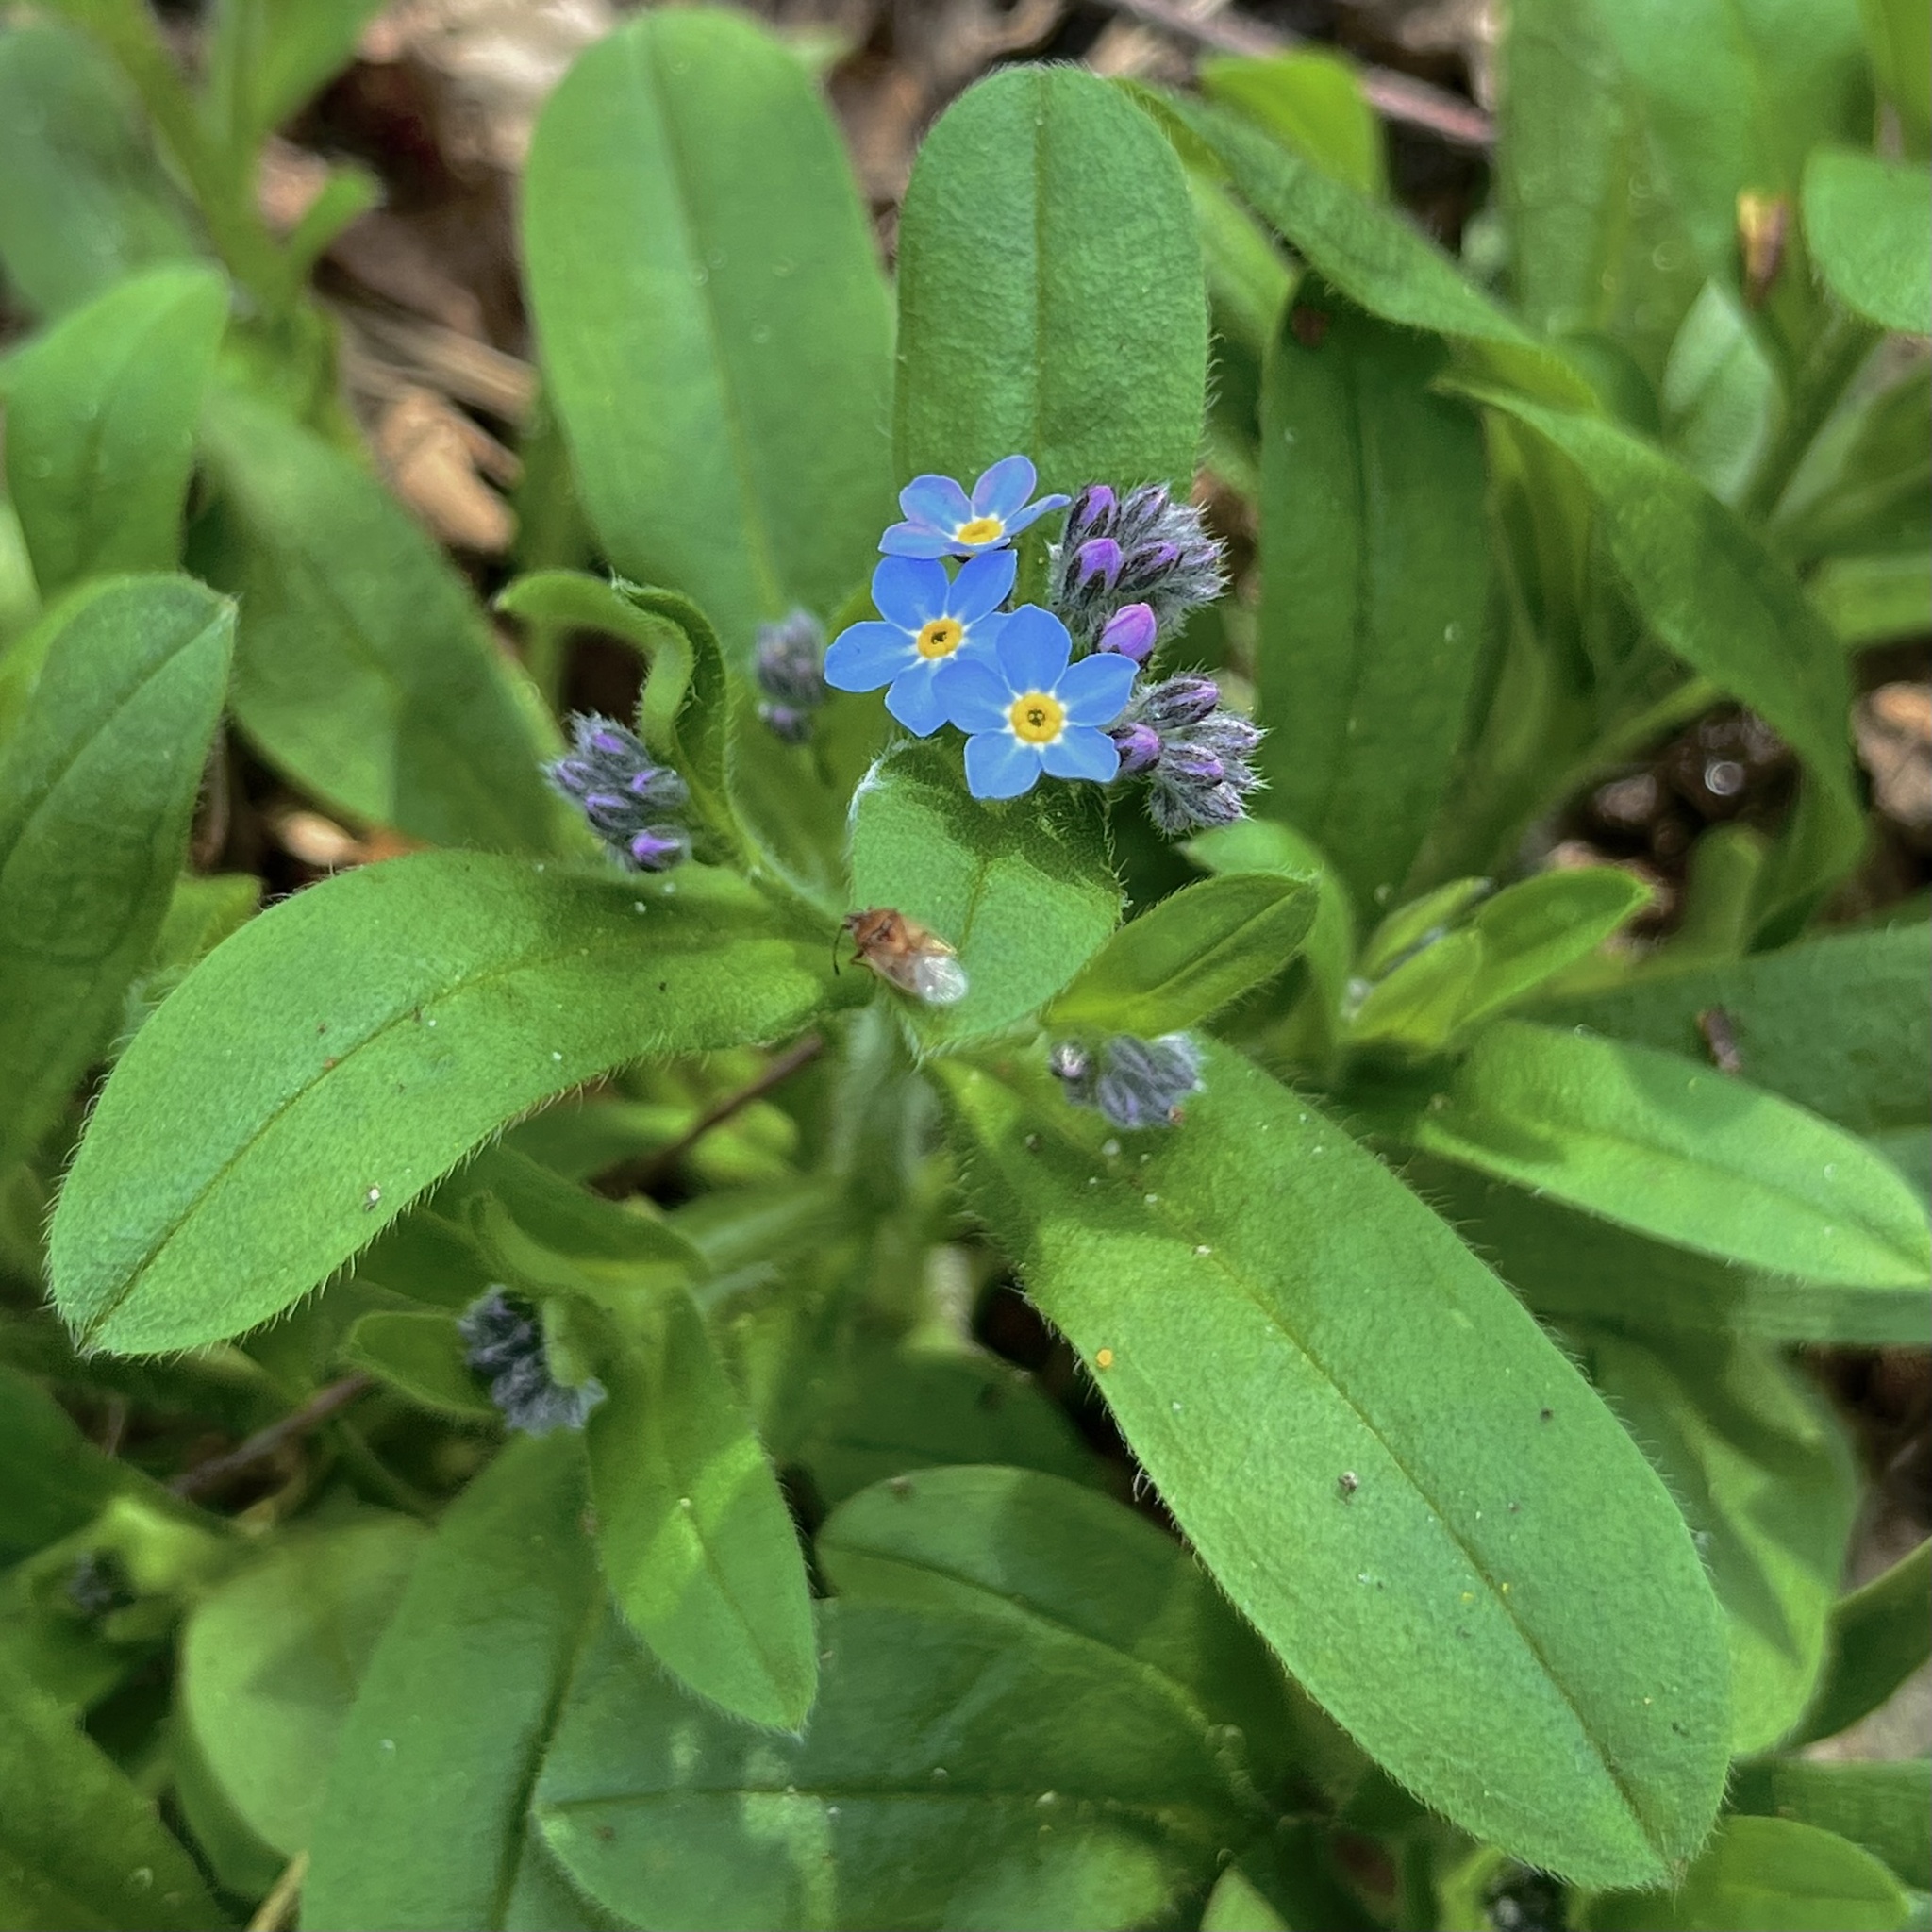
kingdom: Plantae
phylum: Tracheophyta
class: Magnoliopsida
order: Boraginales
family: Boraginaceae
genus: Myosotis
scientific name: Myosotis sylvatica
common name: Wood forget-me-not
